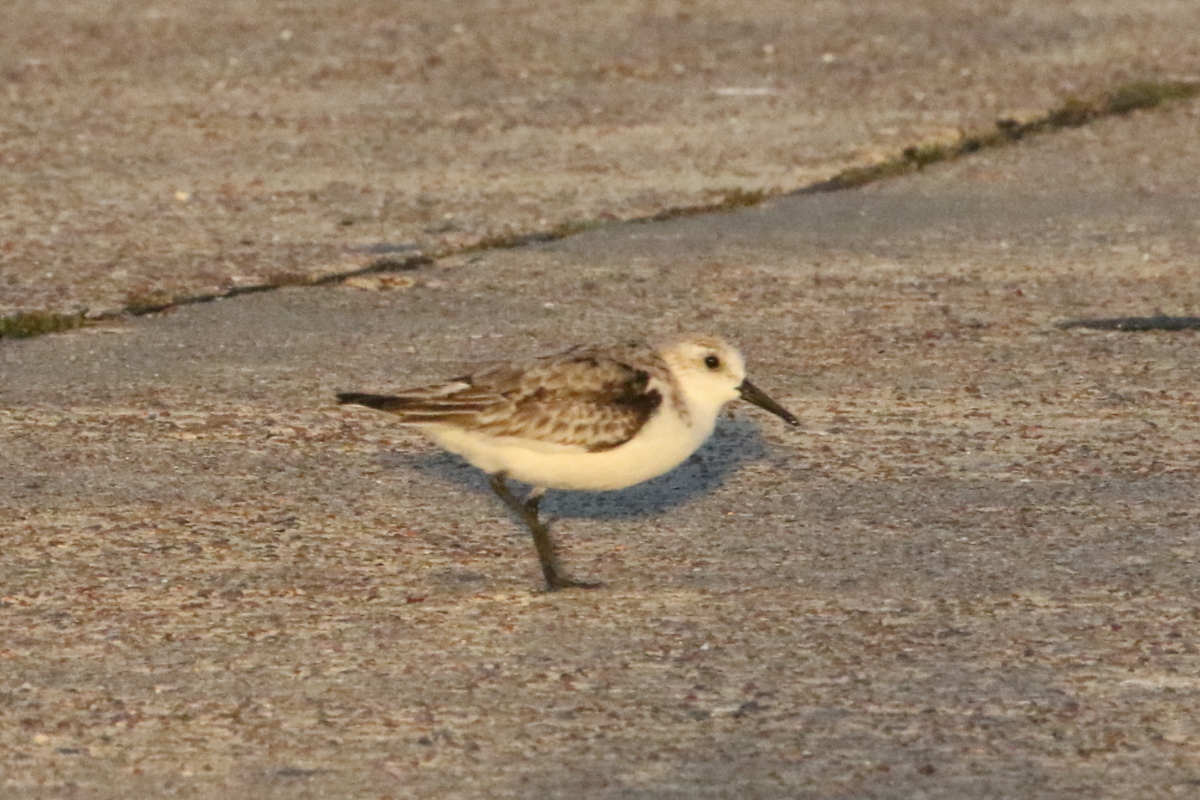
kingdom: Animalia
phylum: Chordata
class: Aves
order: Charadriiformes
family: Scolopacidae
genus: Calidris
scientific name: Calidris alba
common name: Sanderling
